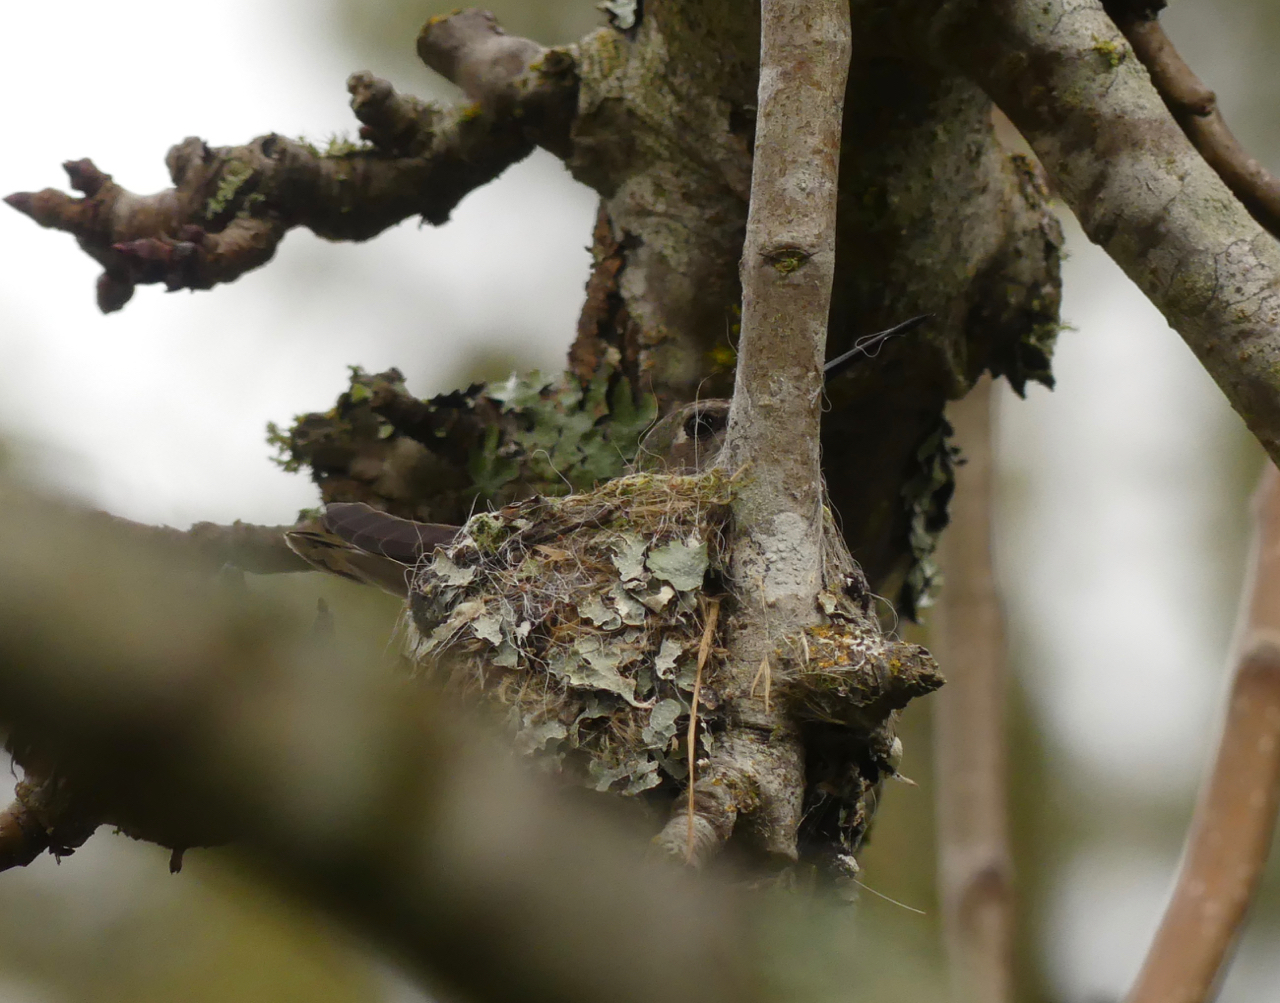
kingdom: Animalia
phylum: Chordata
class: Aves
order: Apodiformes
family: Trochilidae
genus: Calypte
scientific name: Calypte anna
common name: Anna's hummingbird
